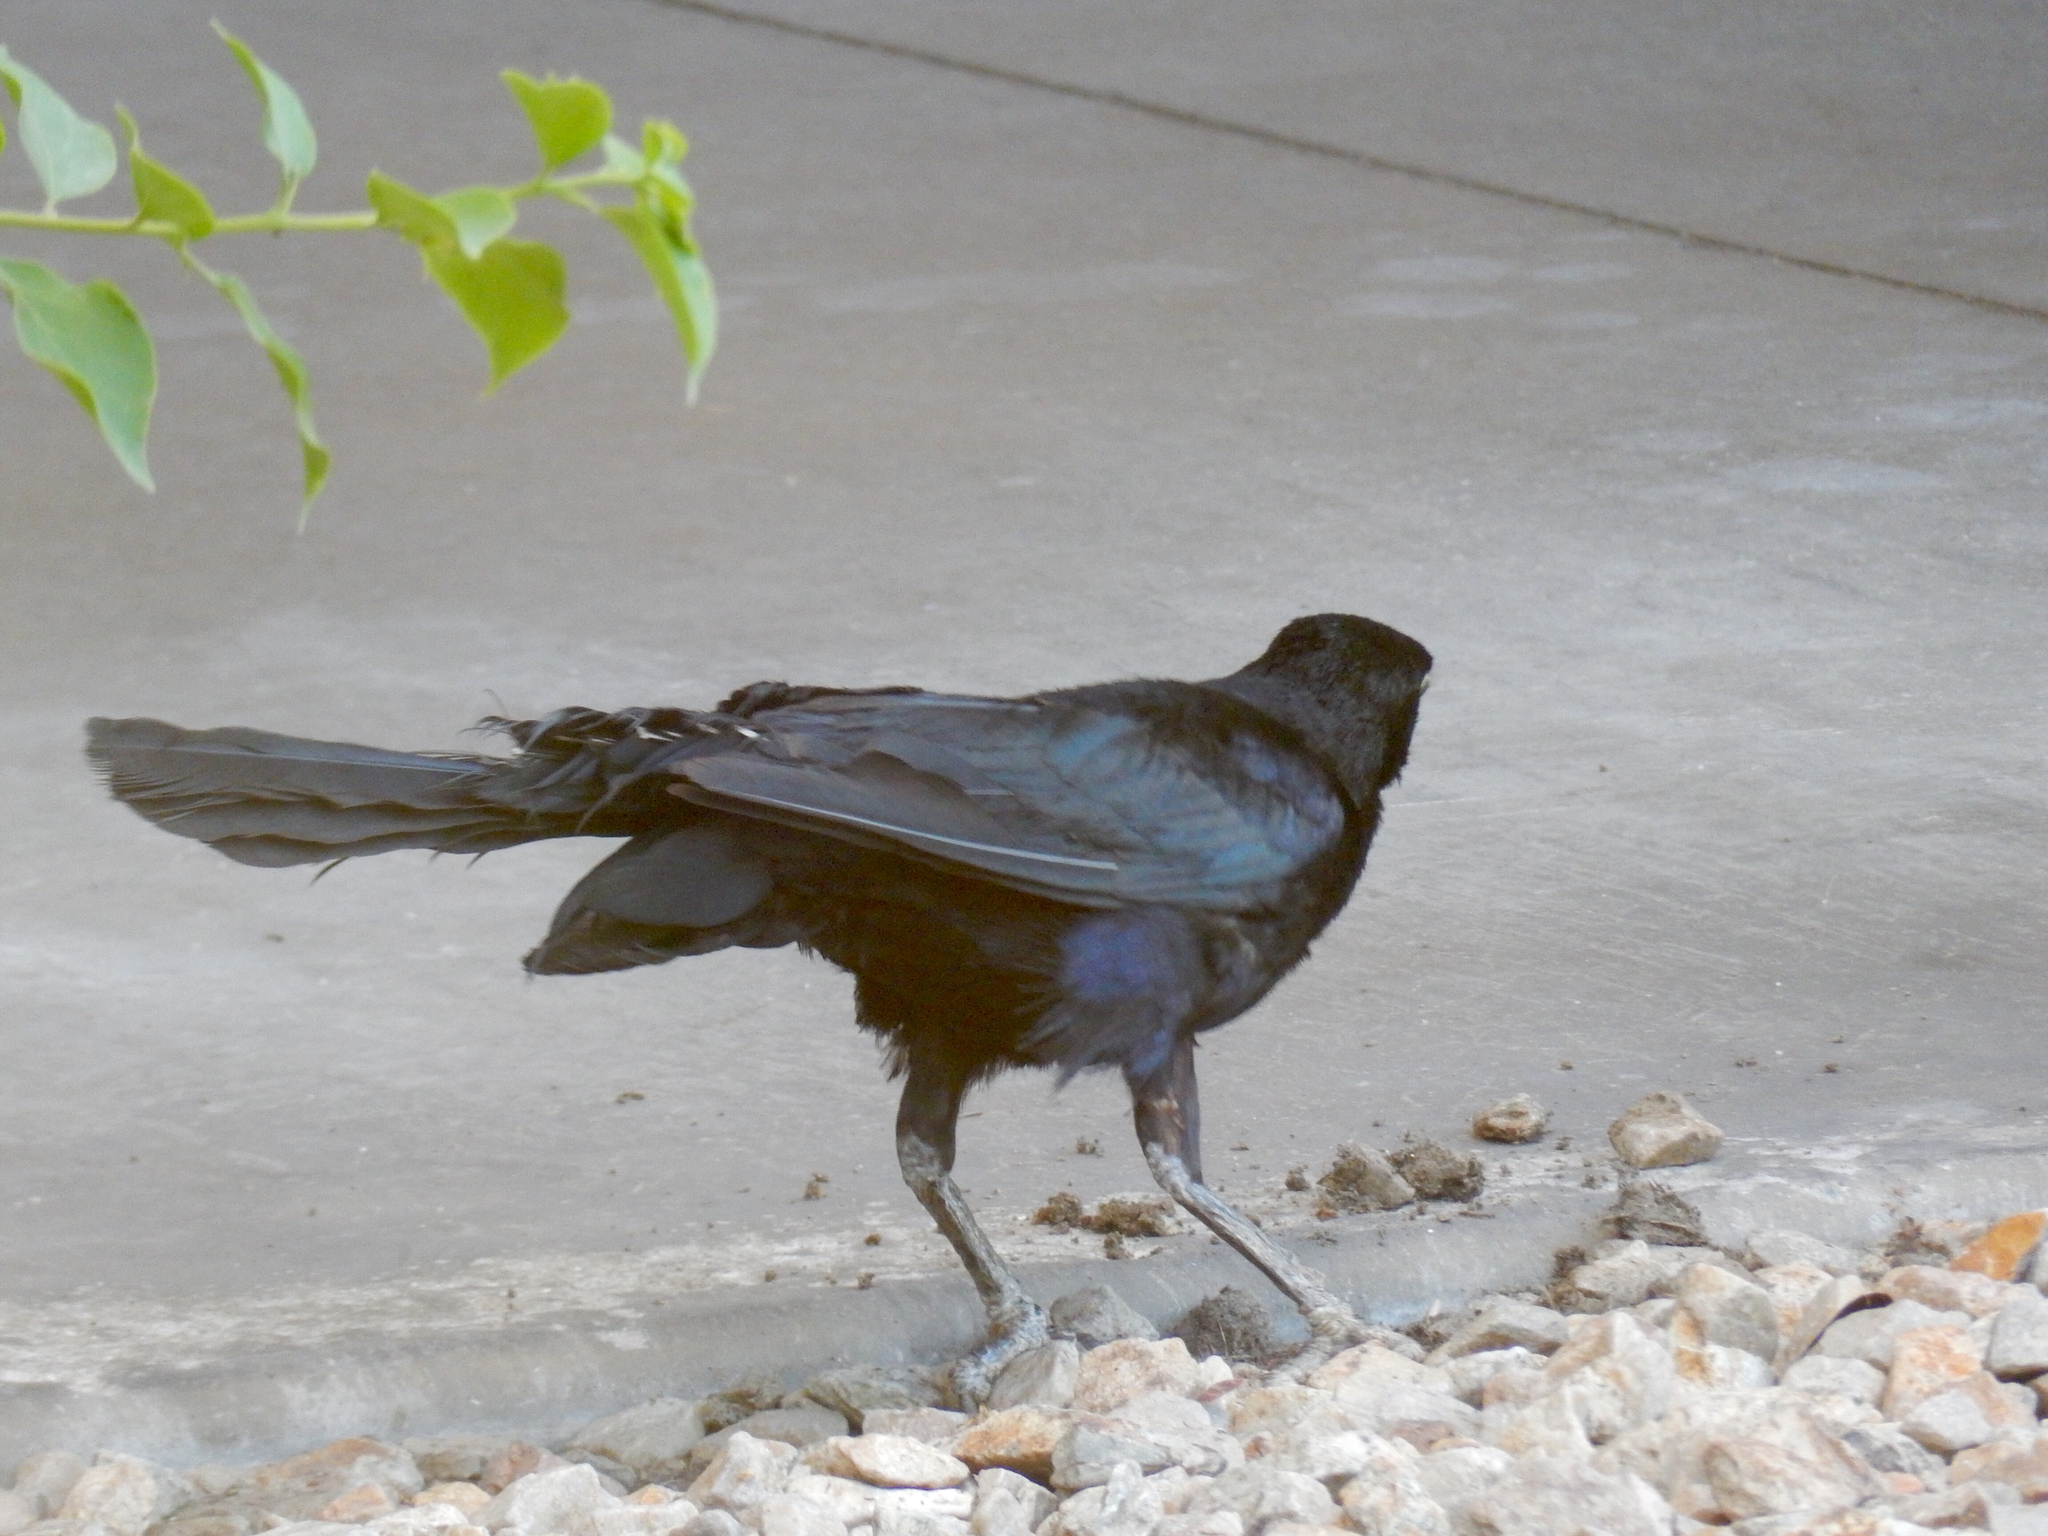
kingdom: Animalia
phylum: Chordata
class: Aves
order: Passeriformes
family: Icteridae
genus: Quiscalus
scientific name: Quiscalus mexicanus
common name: Great-tailed grackle
